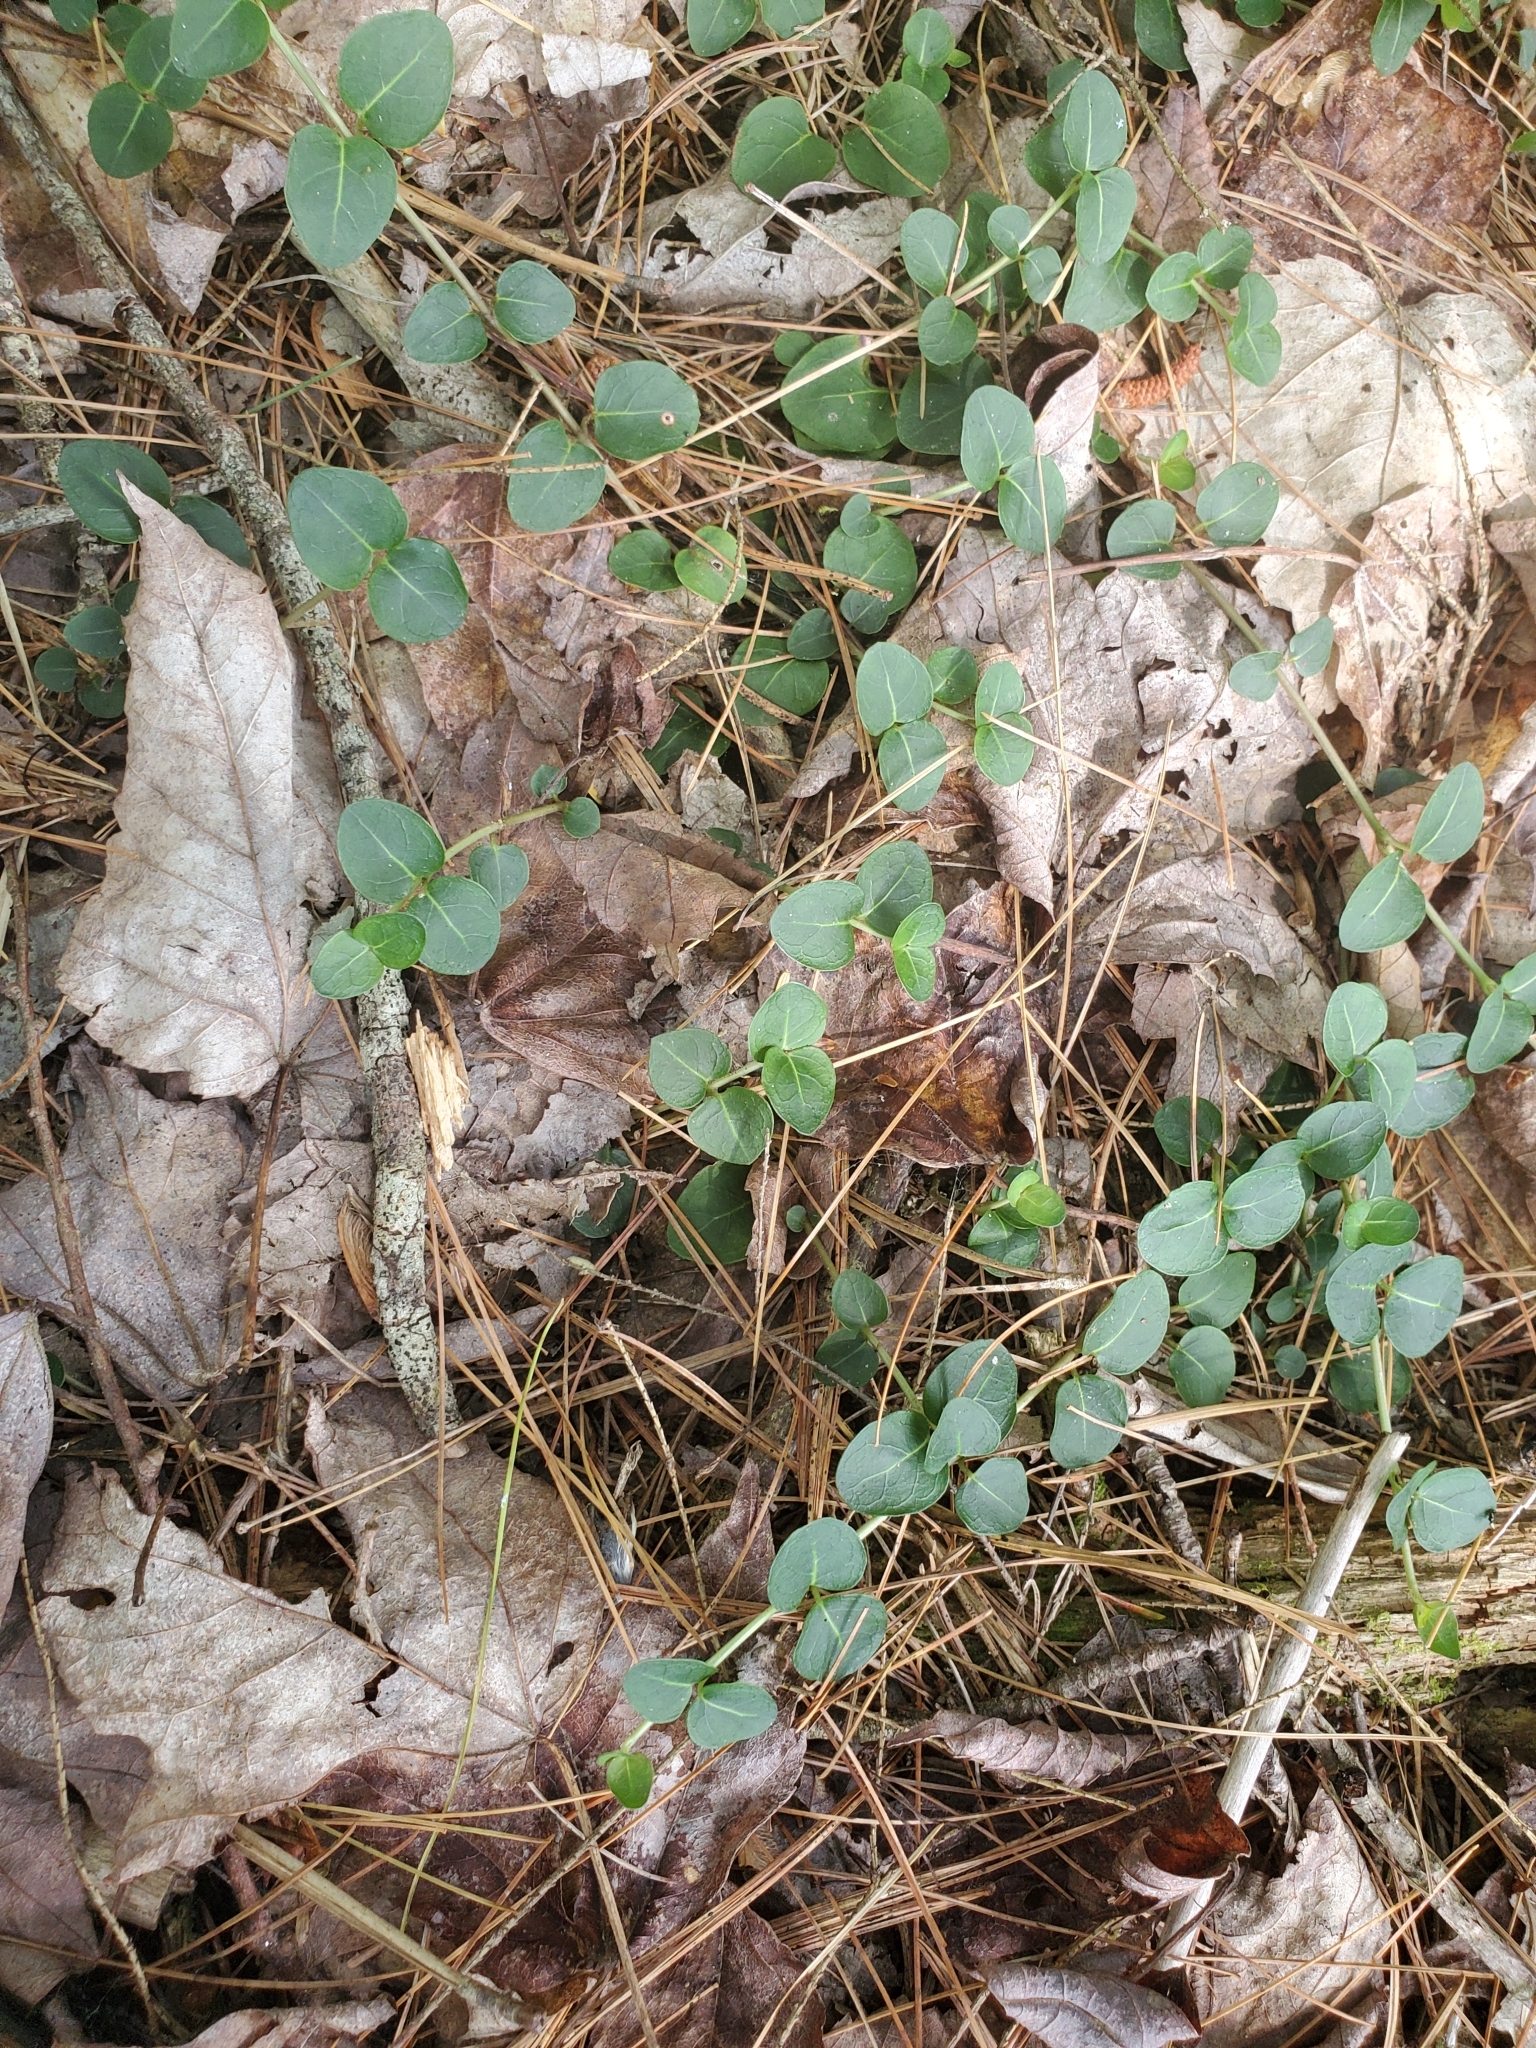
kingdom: Plantae
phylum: Tracheophyta
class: Magnoliopsida
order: Gentianales
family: Rubiaceae
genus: Mitchella
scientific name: Mitchella repens
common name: Partridge-berry
